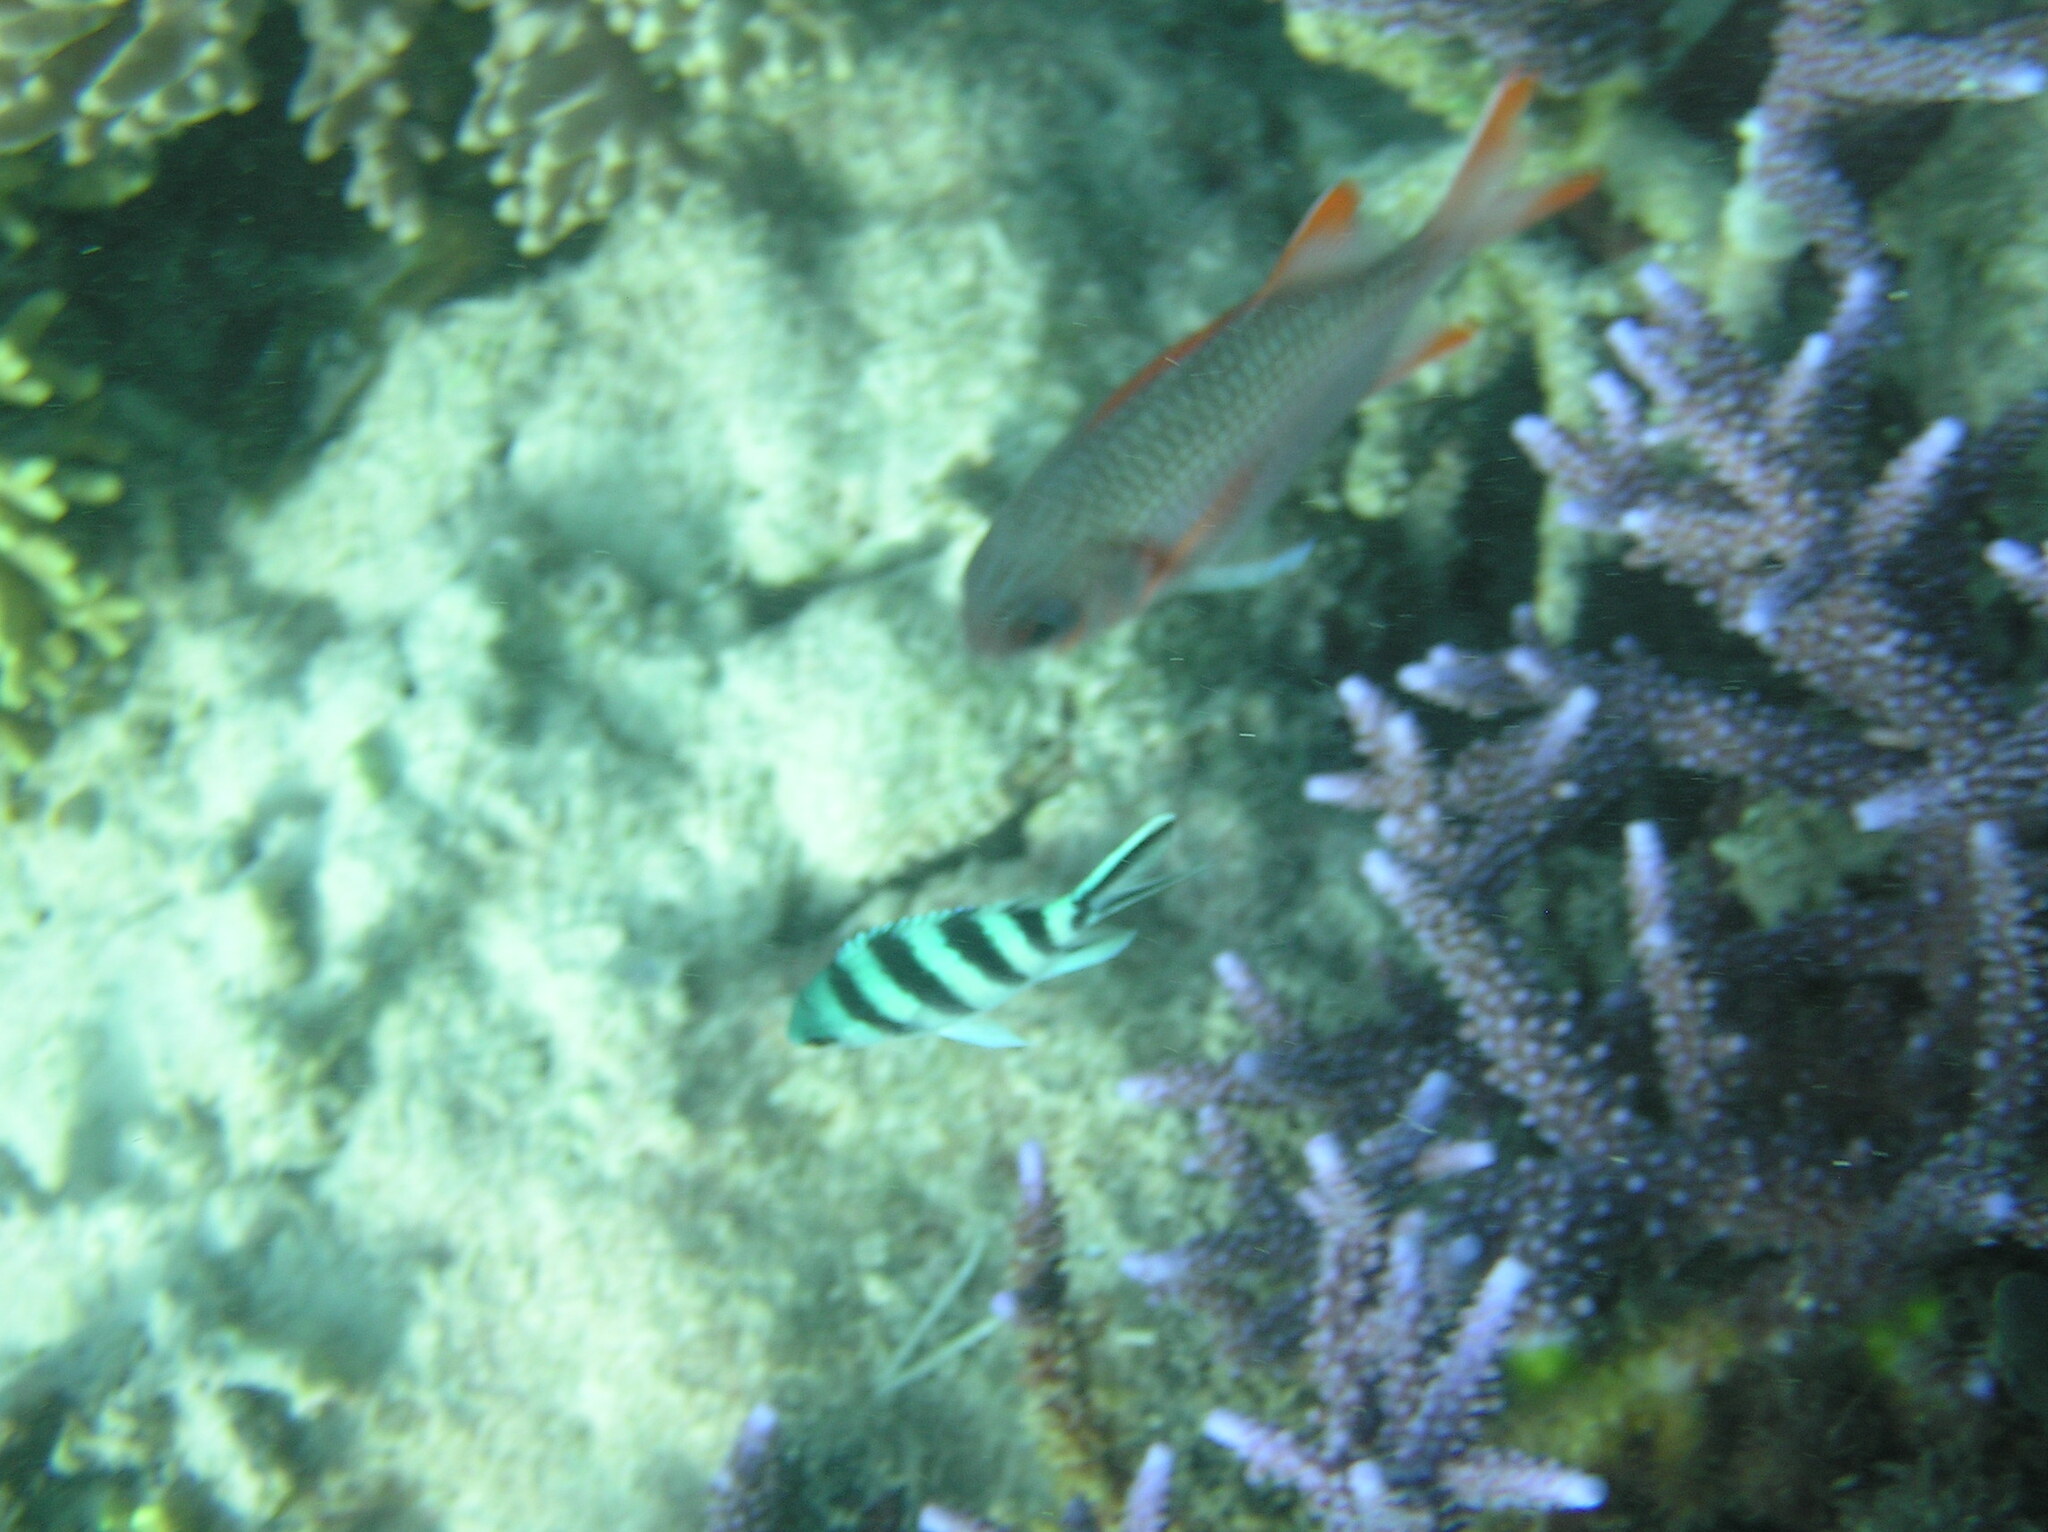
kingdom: Animalia
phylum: Chordata
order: Perciformes
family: Pomacentridae
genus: Abudefduf
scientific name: Abudefduf sexfasciatus
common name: Scissortail sergeant
